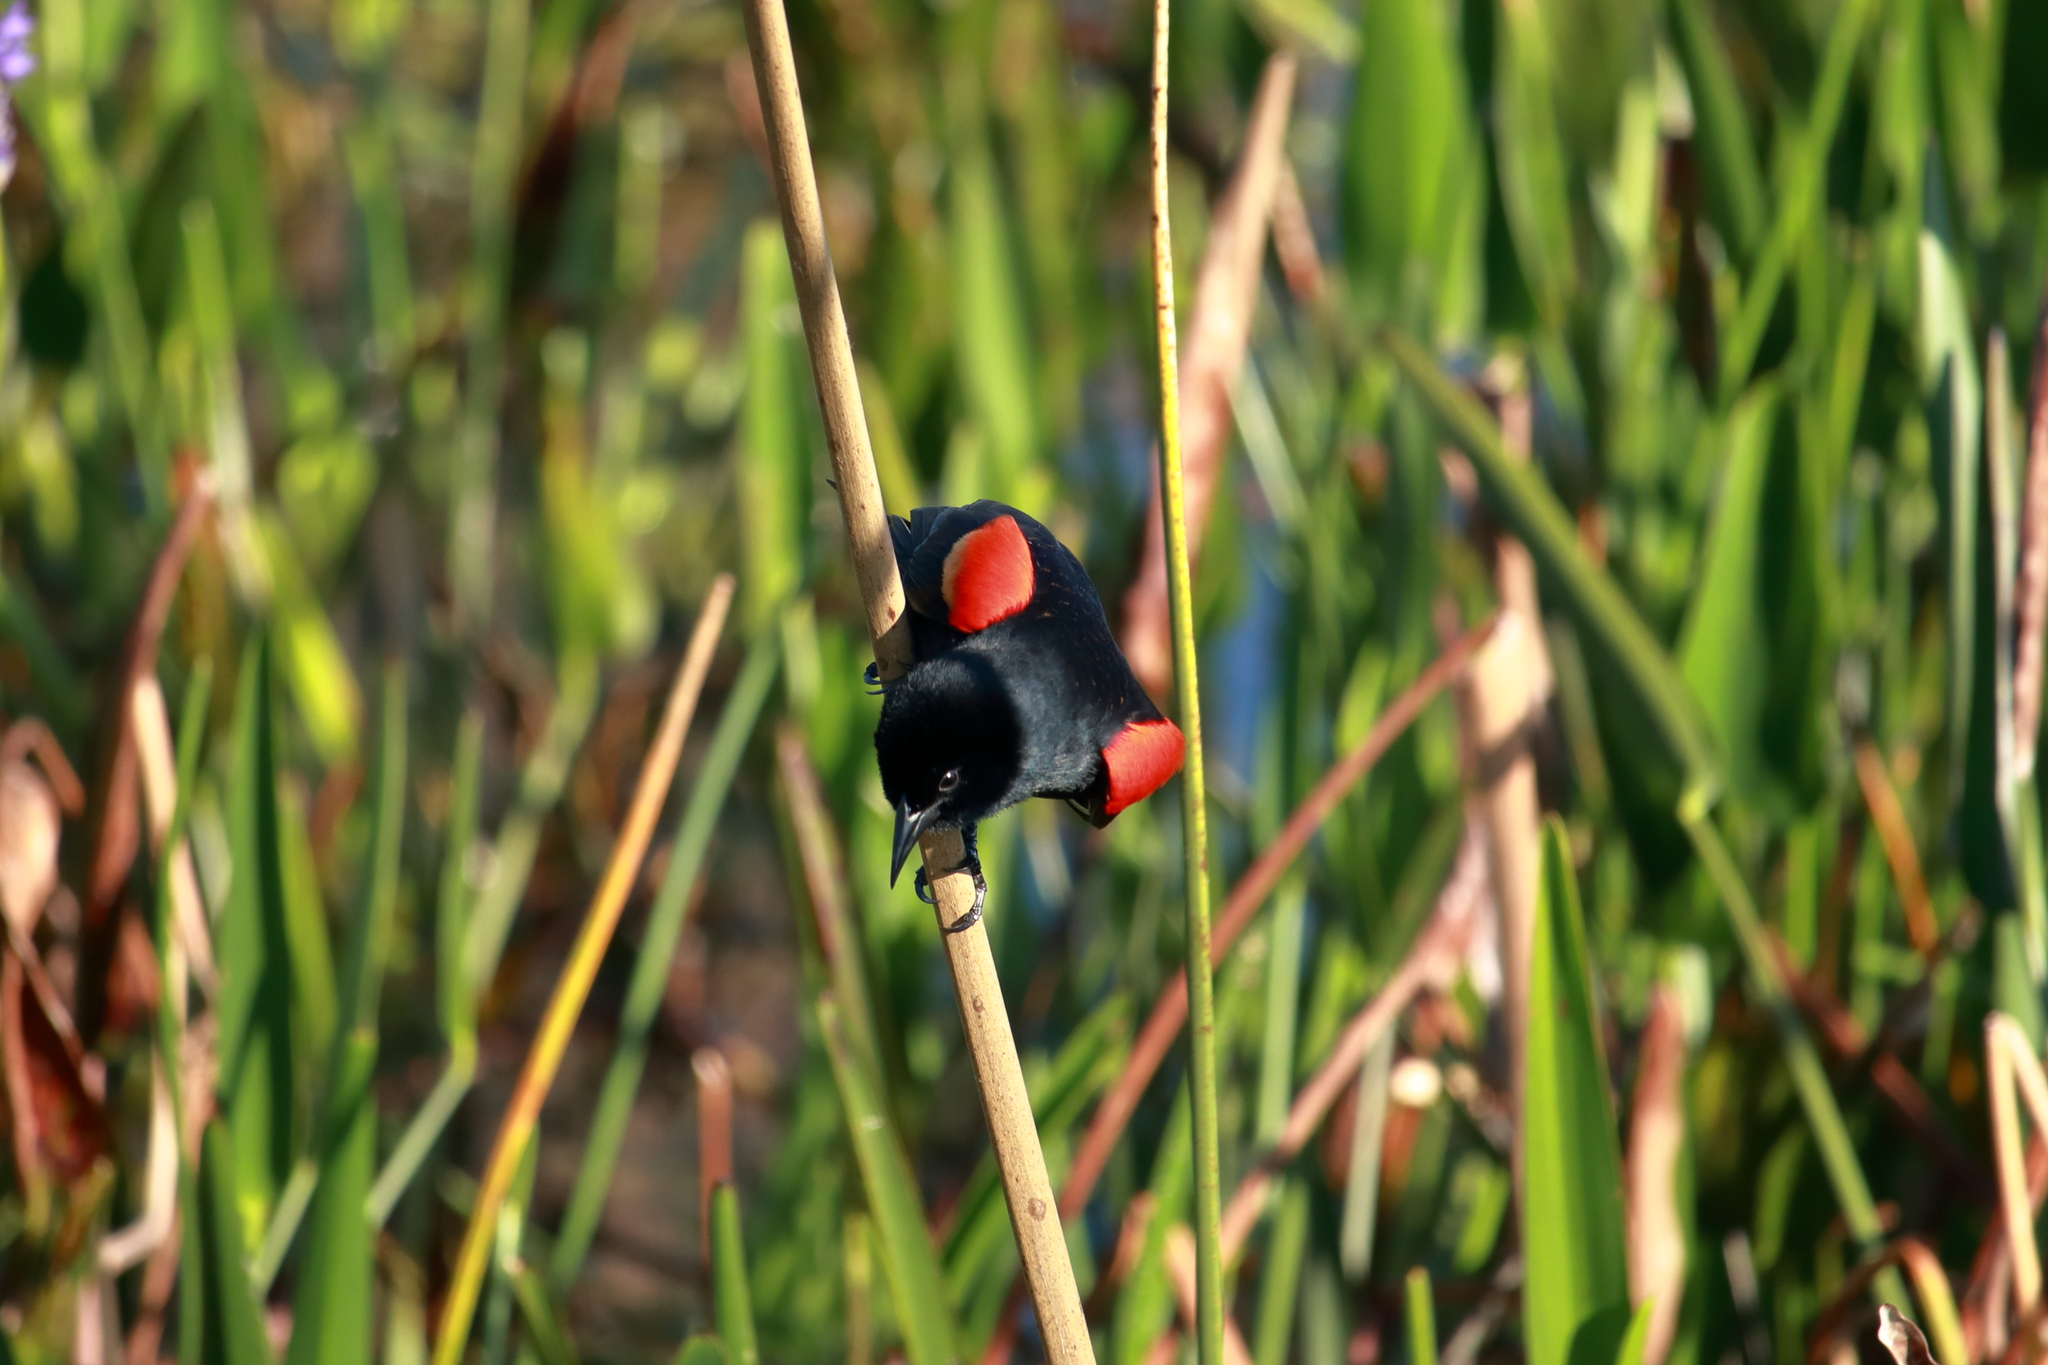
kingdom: Animalia
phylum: Chordata
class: Aves
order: Passeriformes
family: Icteridae
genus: Agelaius
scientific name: Agelaius phoeniceus
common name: Red-winged blackbird
